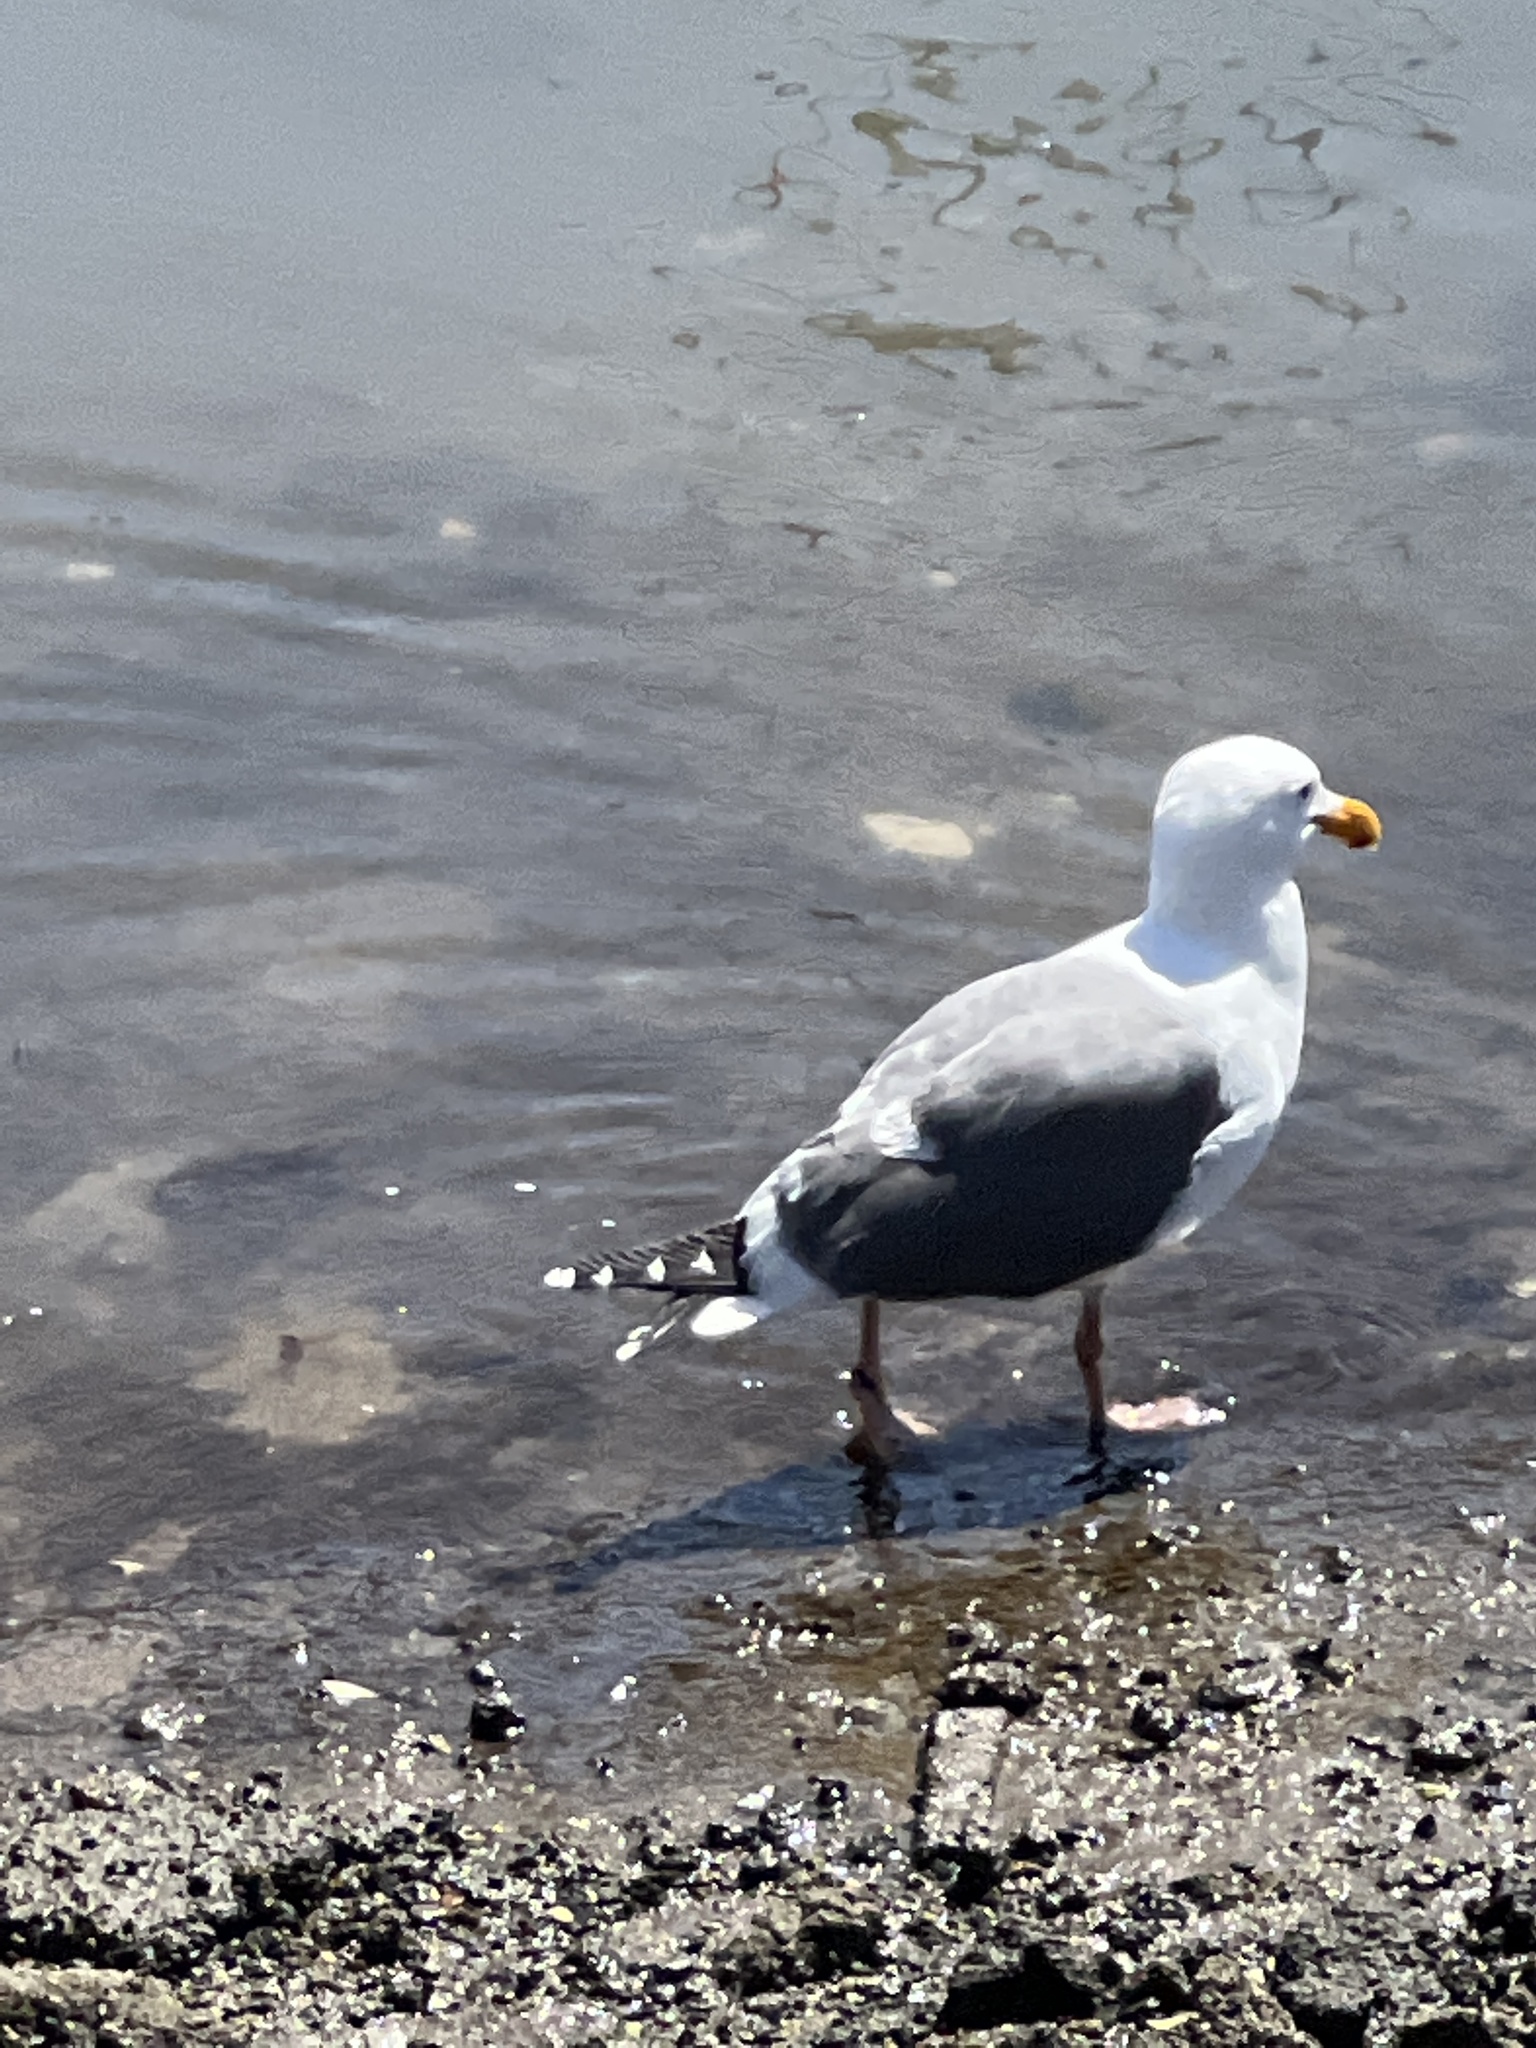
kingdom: Animalia
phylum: Chordata
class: Aves
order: Charadriiformes
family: Laridae
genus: Larus
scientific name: Larus occidentalis
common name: Western gull
